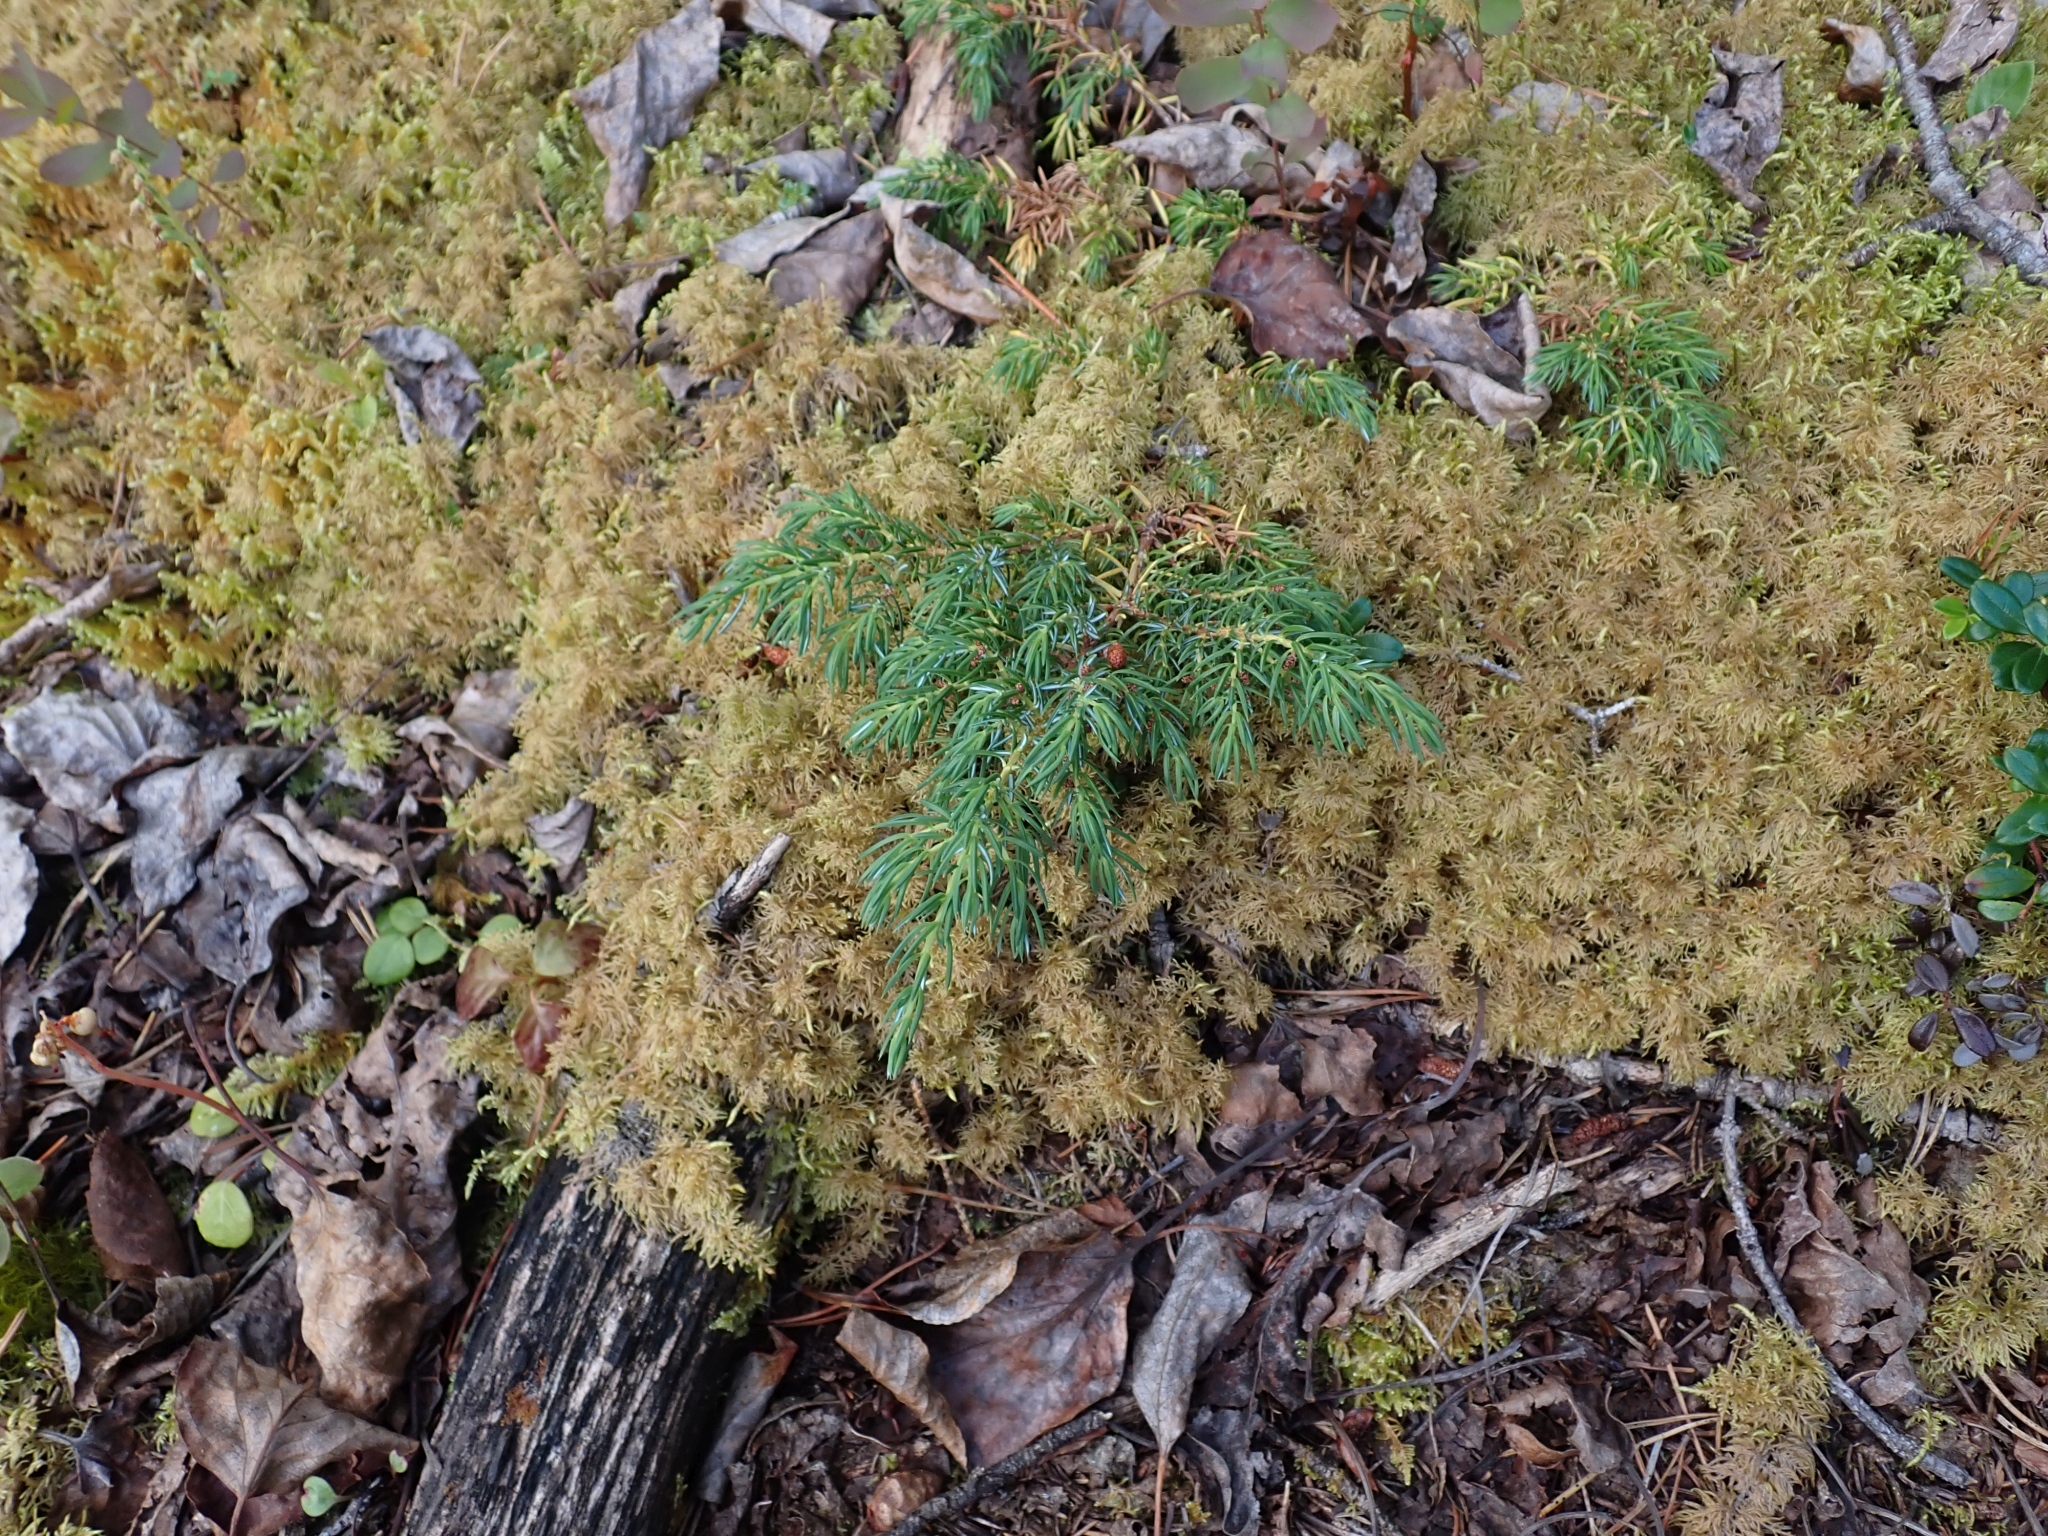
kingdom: Plantae
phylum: Tracheophyta
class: Pinopsida
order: Pinales
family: Cupressaceae
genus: Juniperus
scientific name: Juniperus communis
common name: Common juniper
